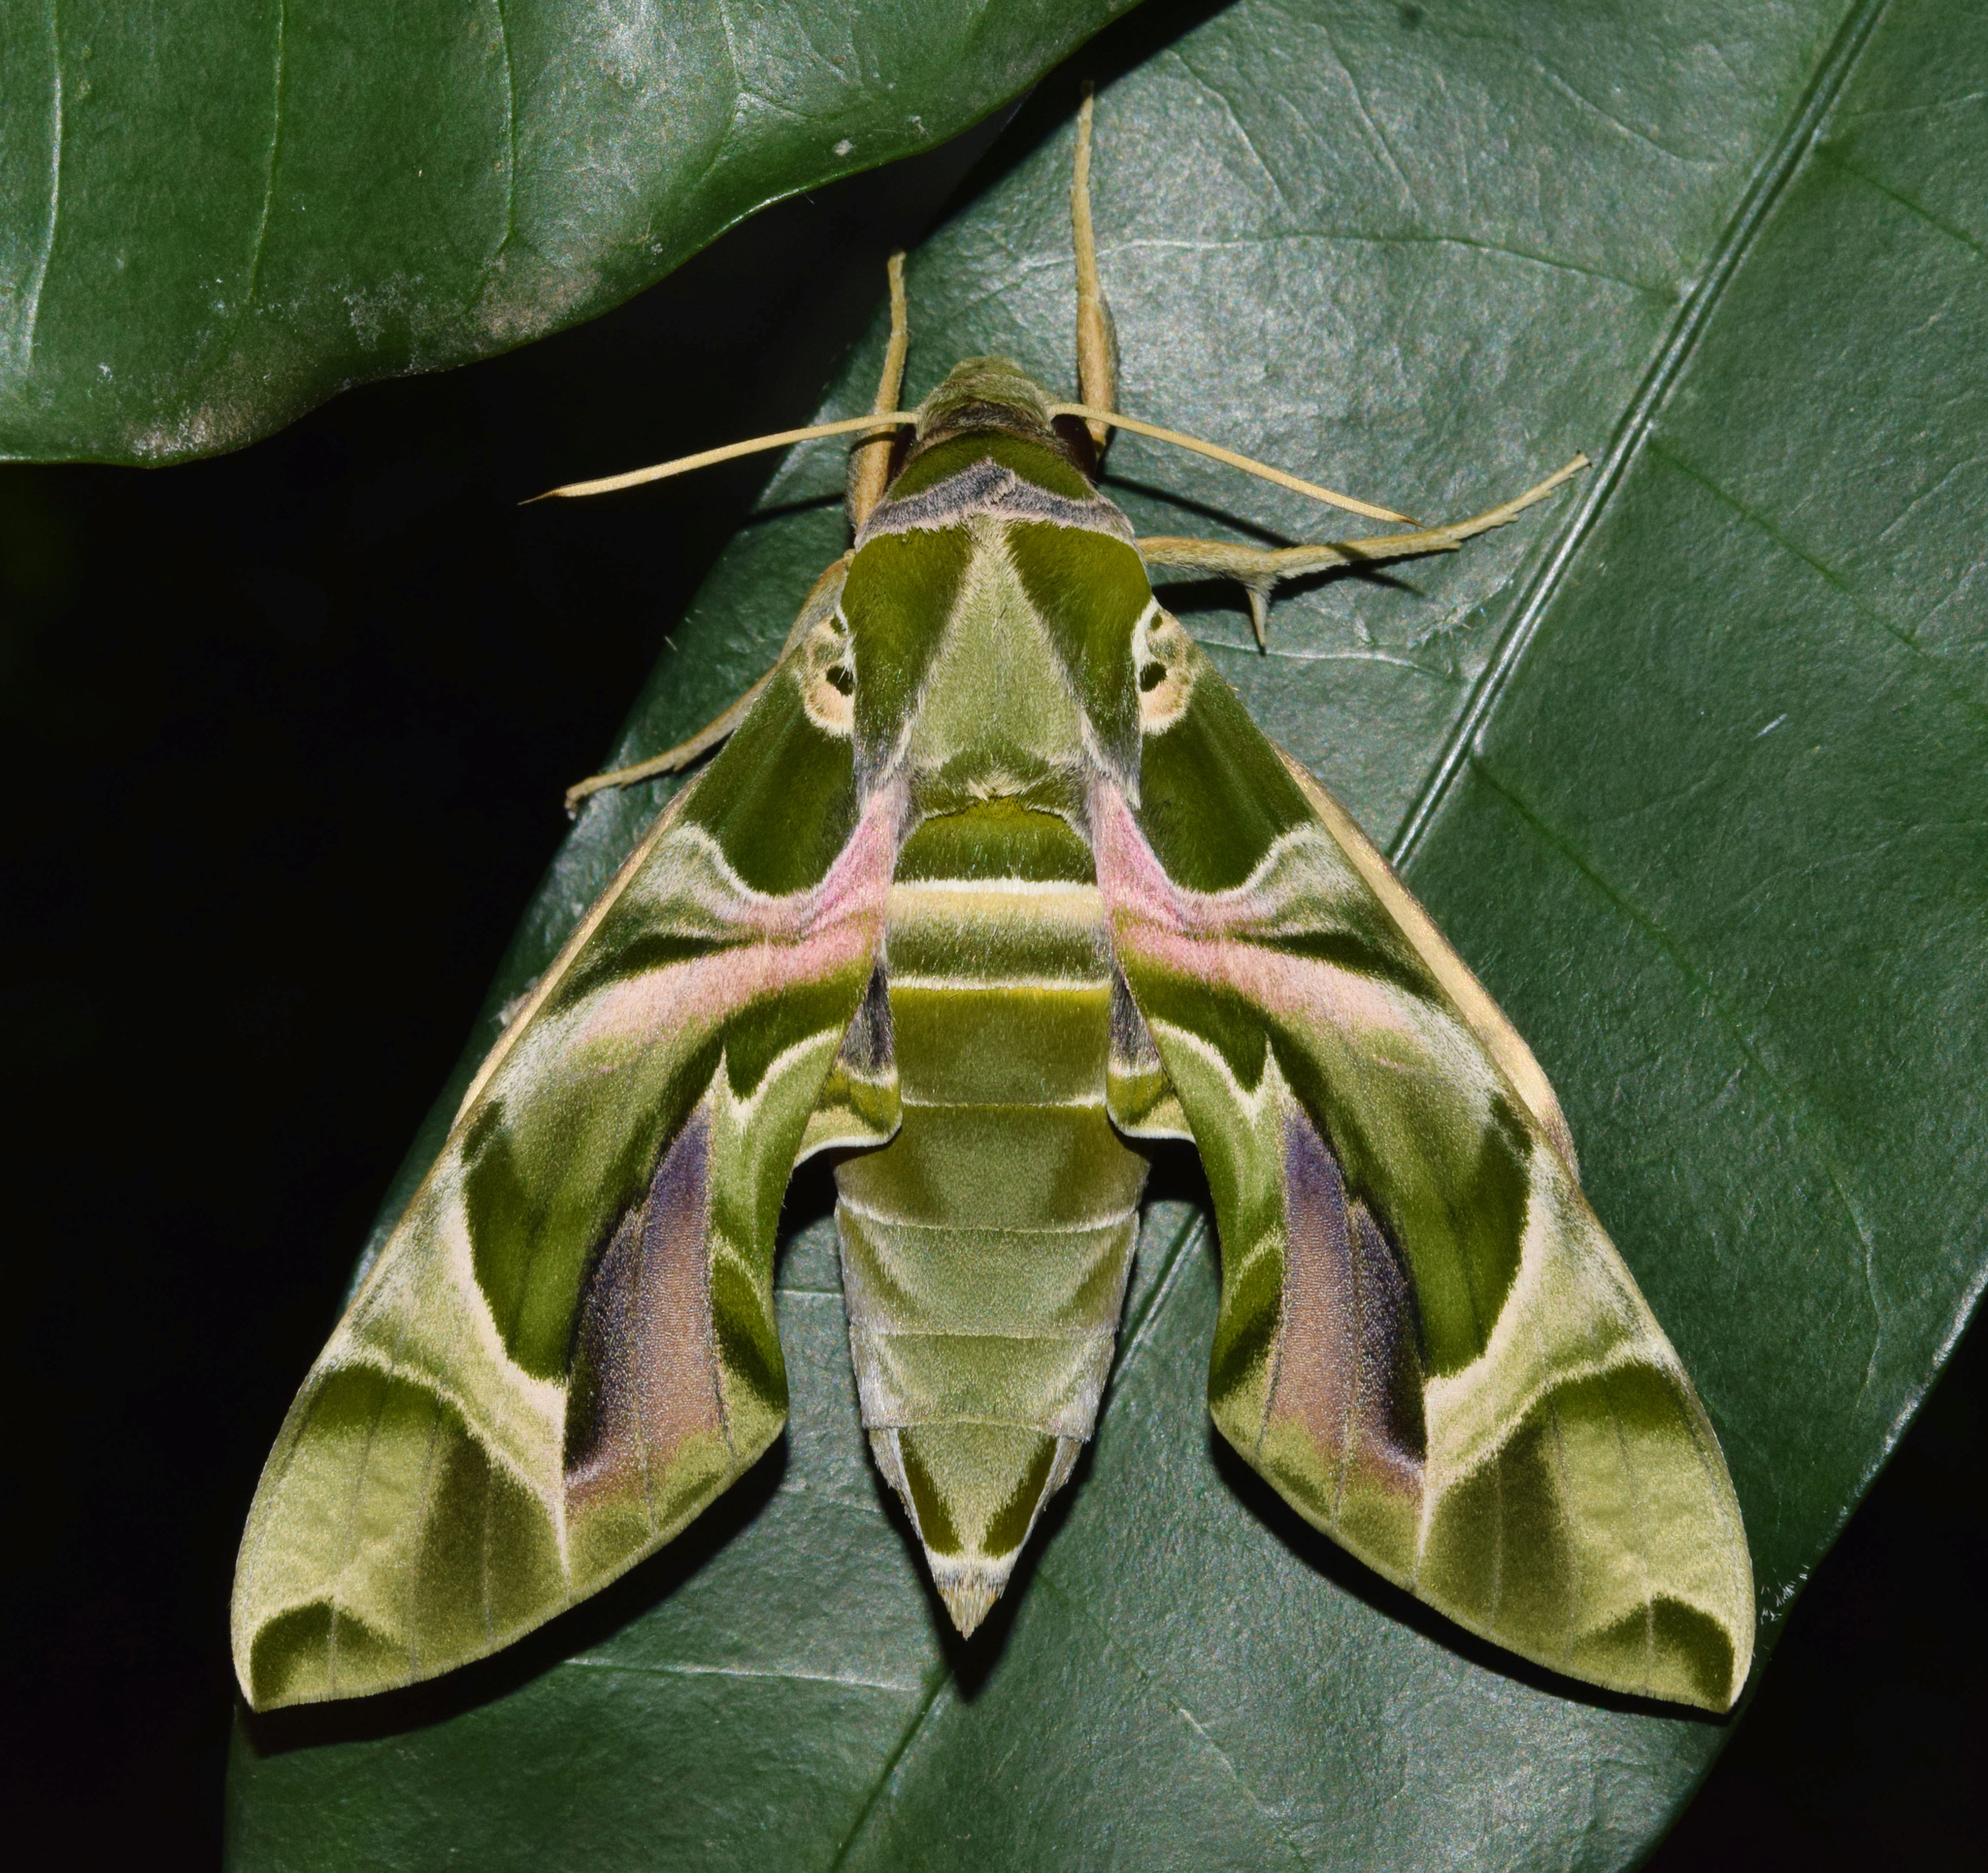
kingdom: Animalia
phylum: Arthropoda
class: Insecta
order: Lepidoptera
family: Sphingidae
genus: Daphnis
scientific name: Daphnis nerii
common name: Oleander hawk-moth
